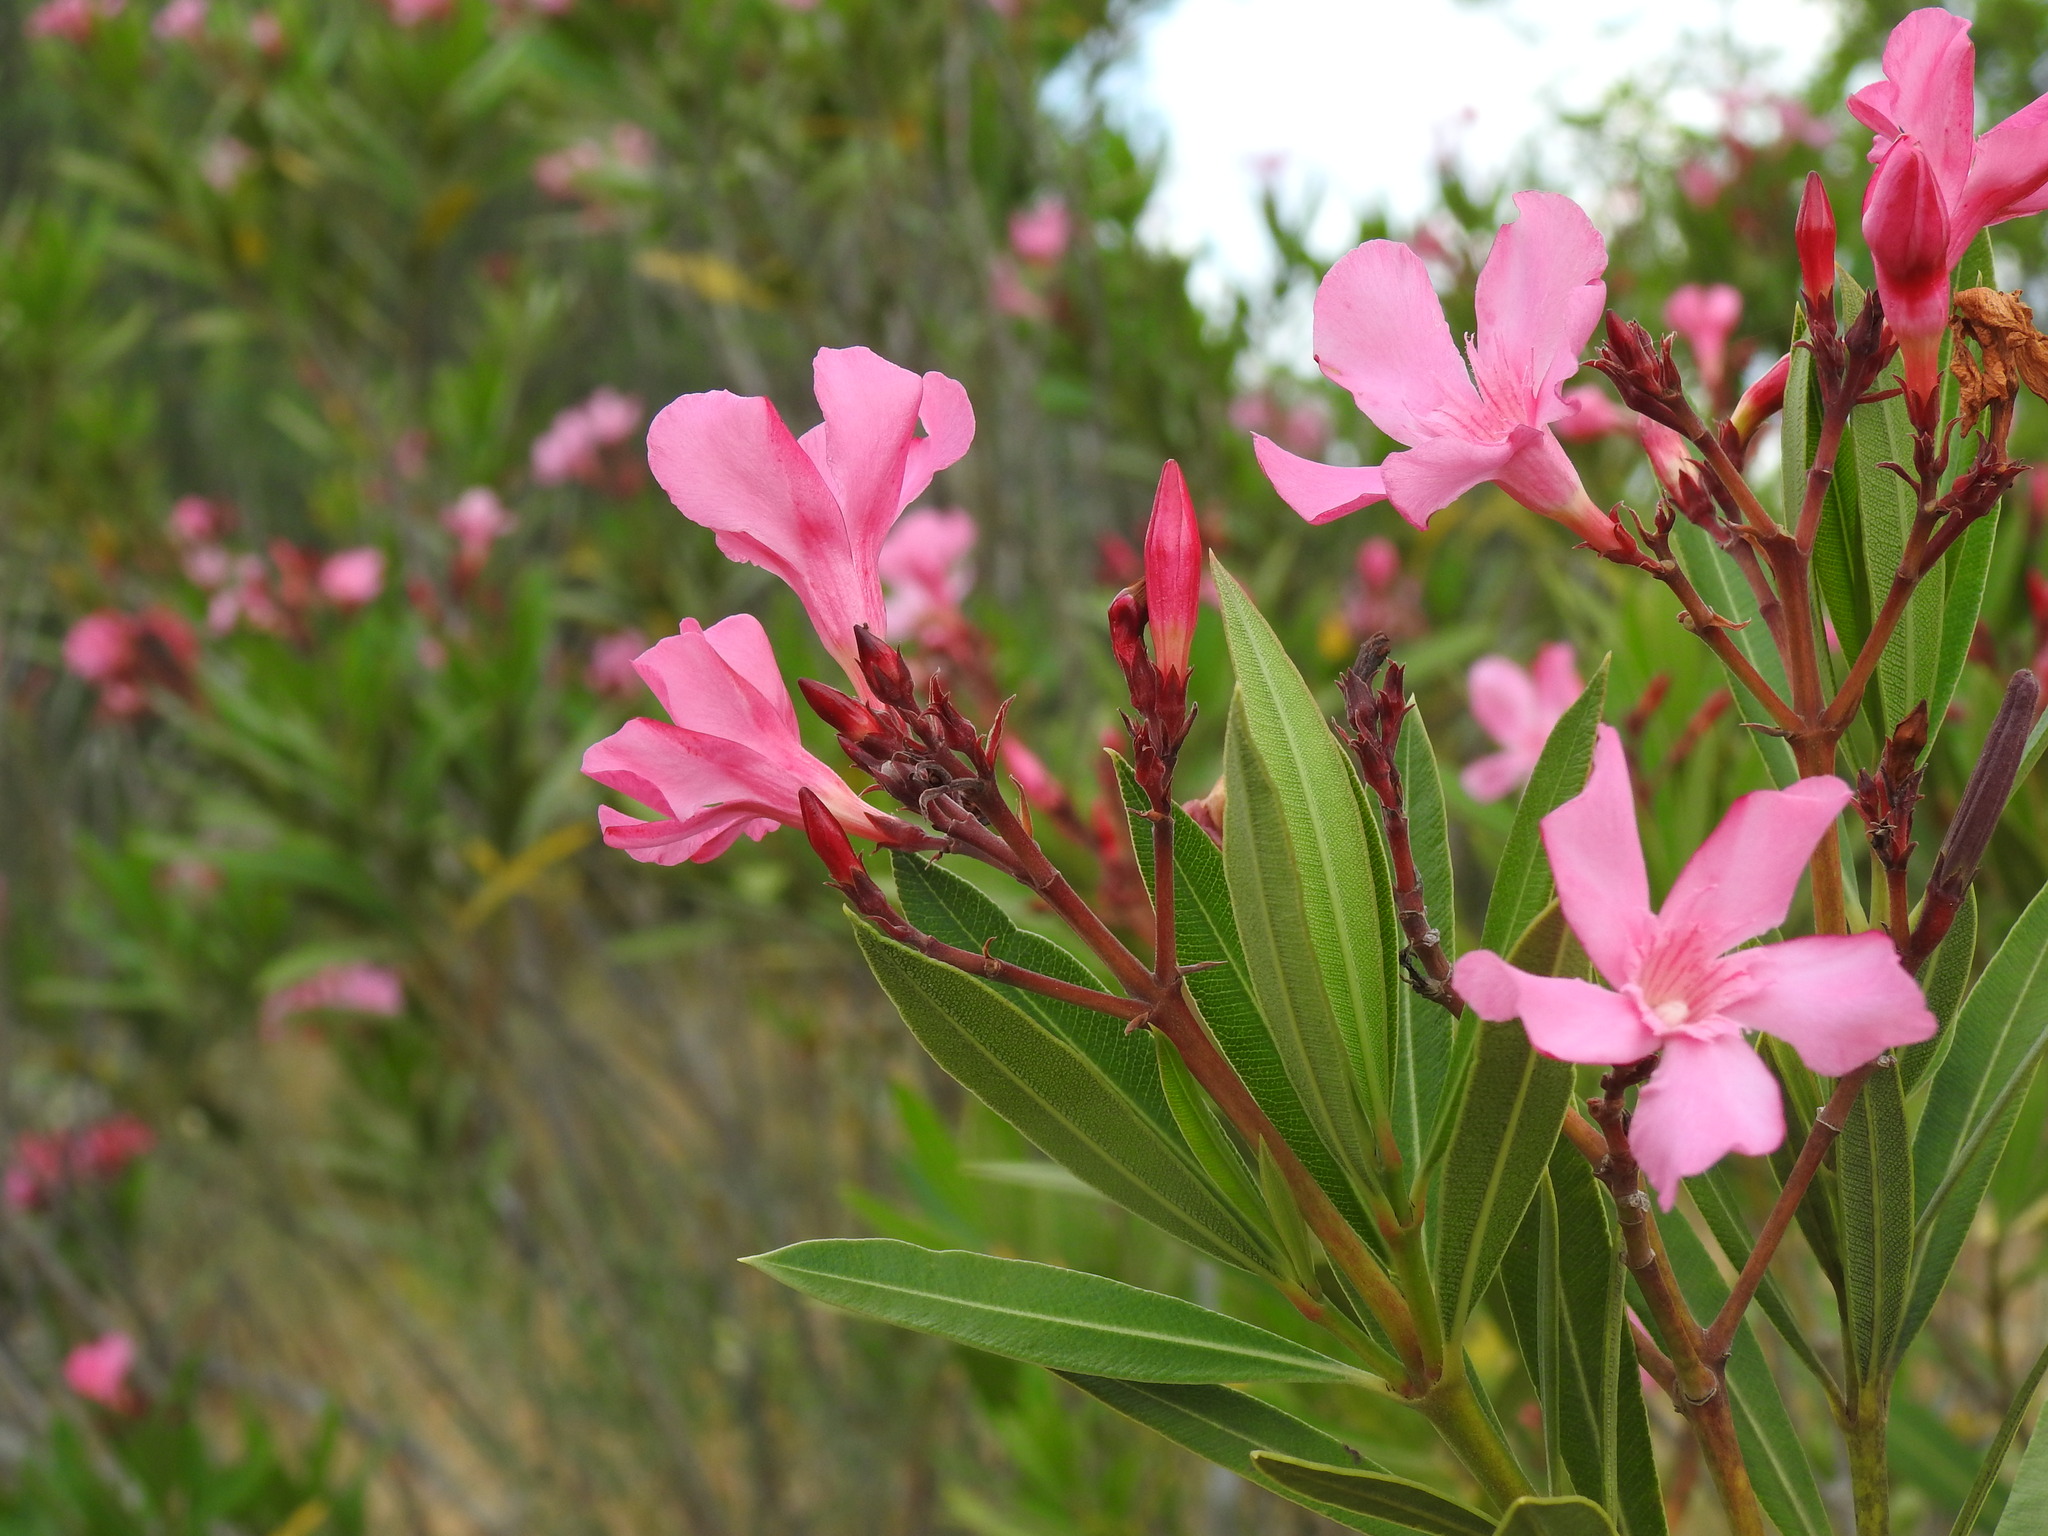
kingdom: Plantae
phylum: Tracheophyta
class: Magnoliopsida
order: Gentianales
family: Apocynaceae
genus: Nerium
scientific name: Nerium oleander
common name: Oleander
